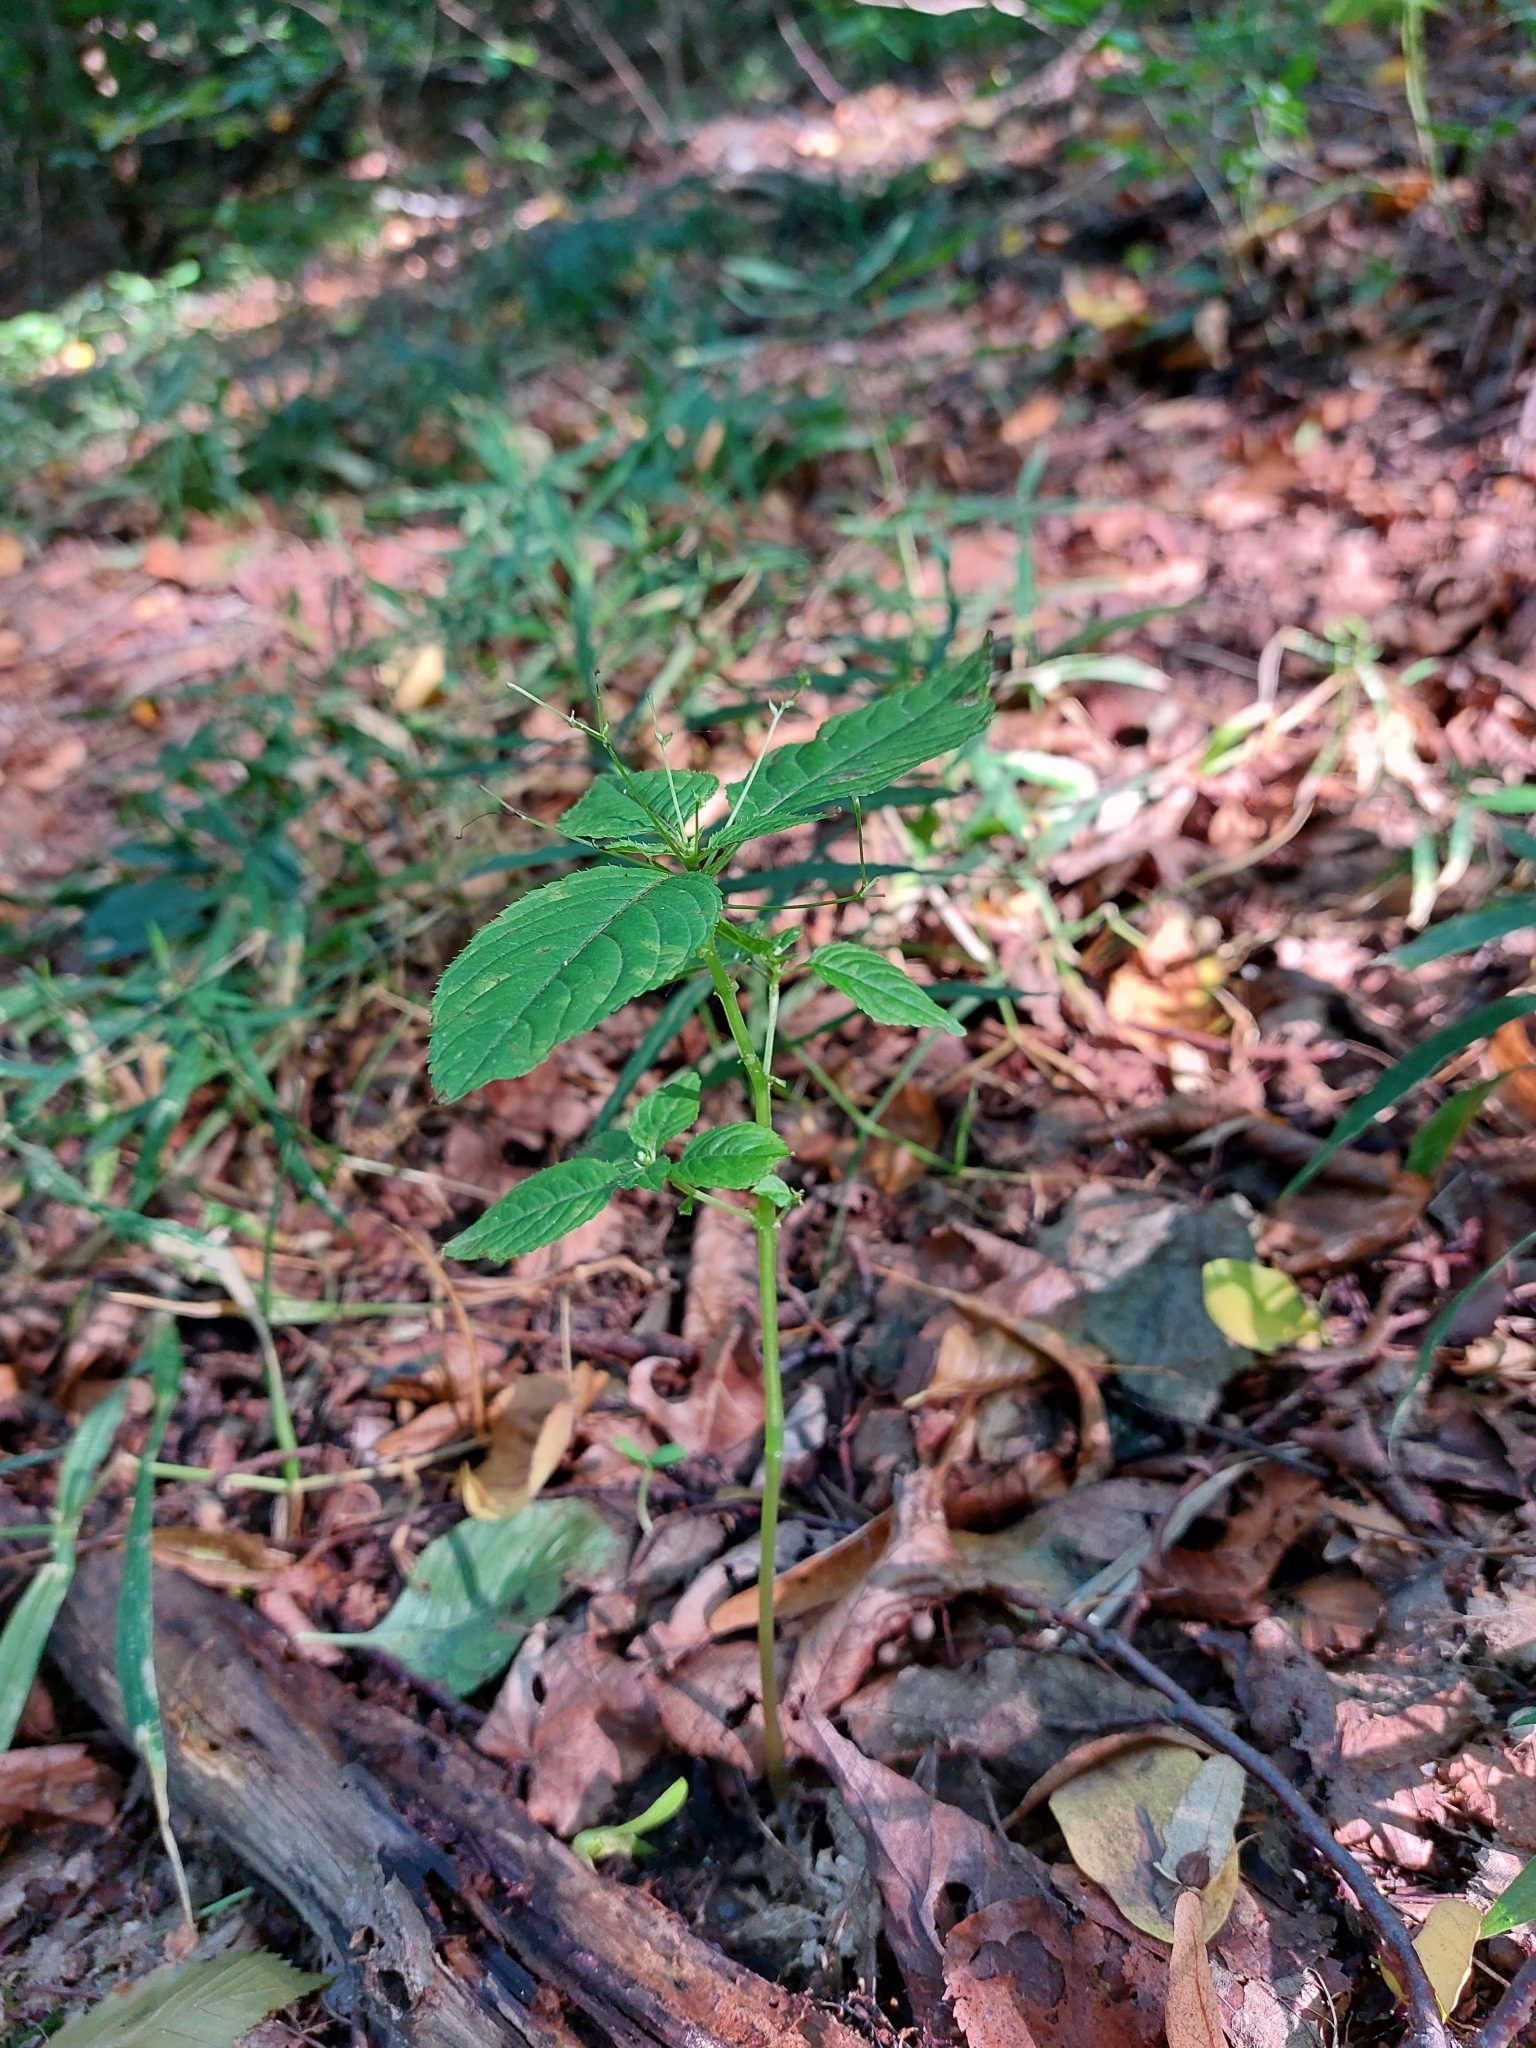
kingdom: Plantae
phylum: Tracheophyta
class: Magnoliopsida
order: Ericales
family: Balsaminaceae
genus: Impatiens
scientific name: Impatiens parviflora
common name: Small balsam
